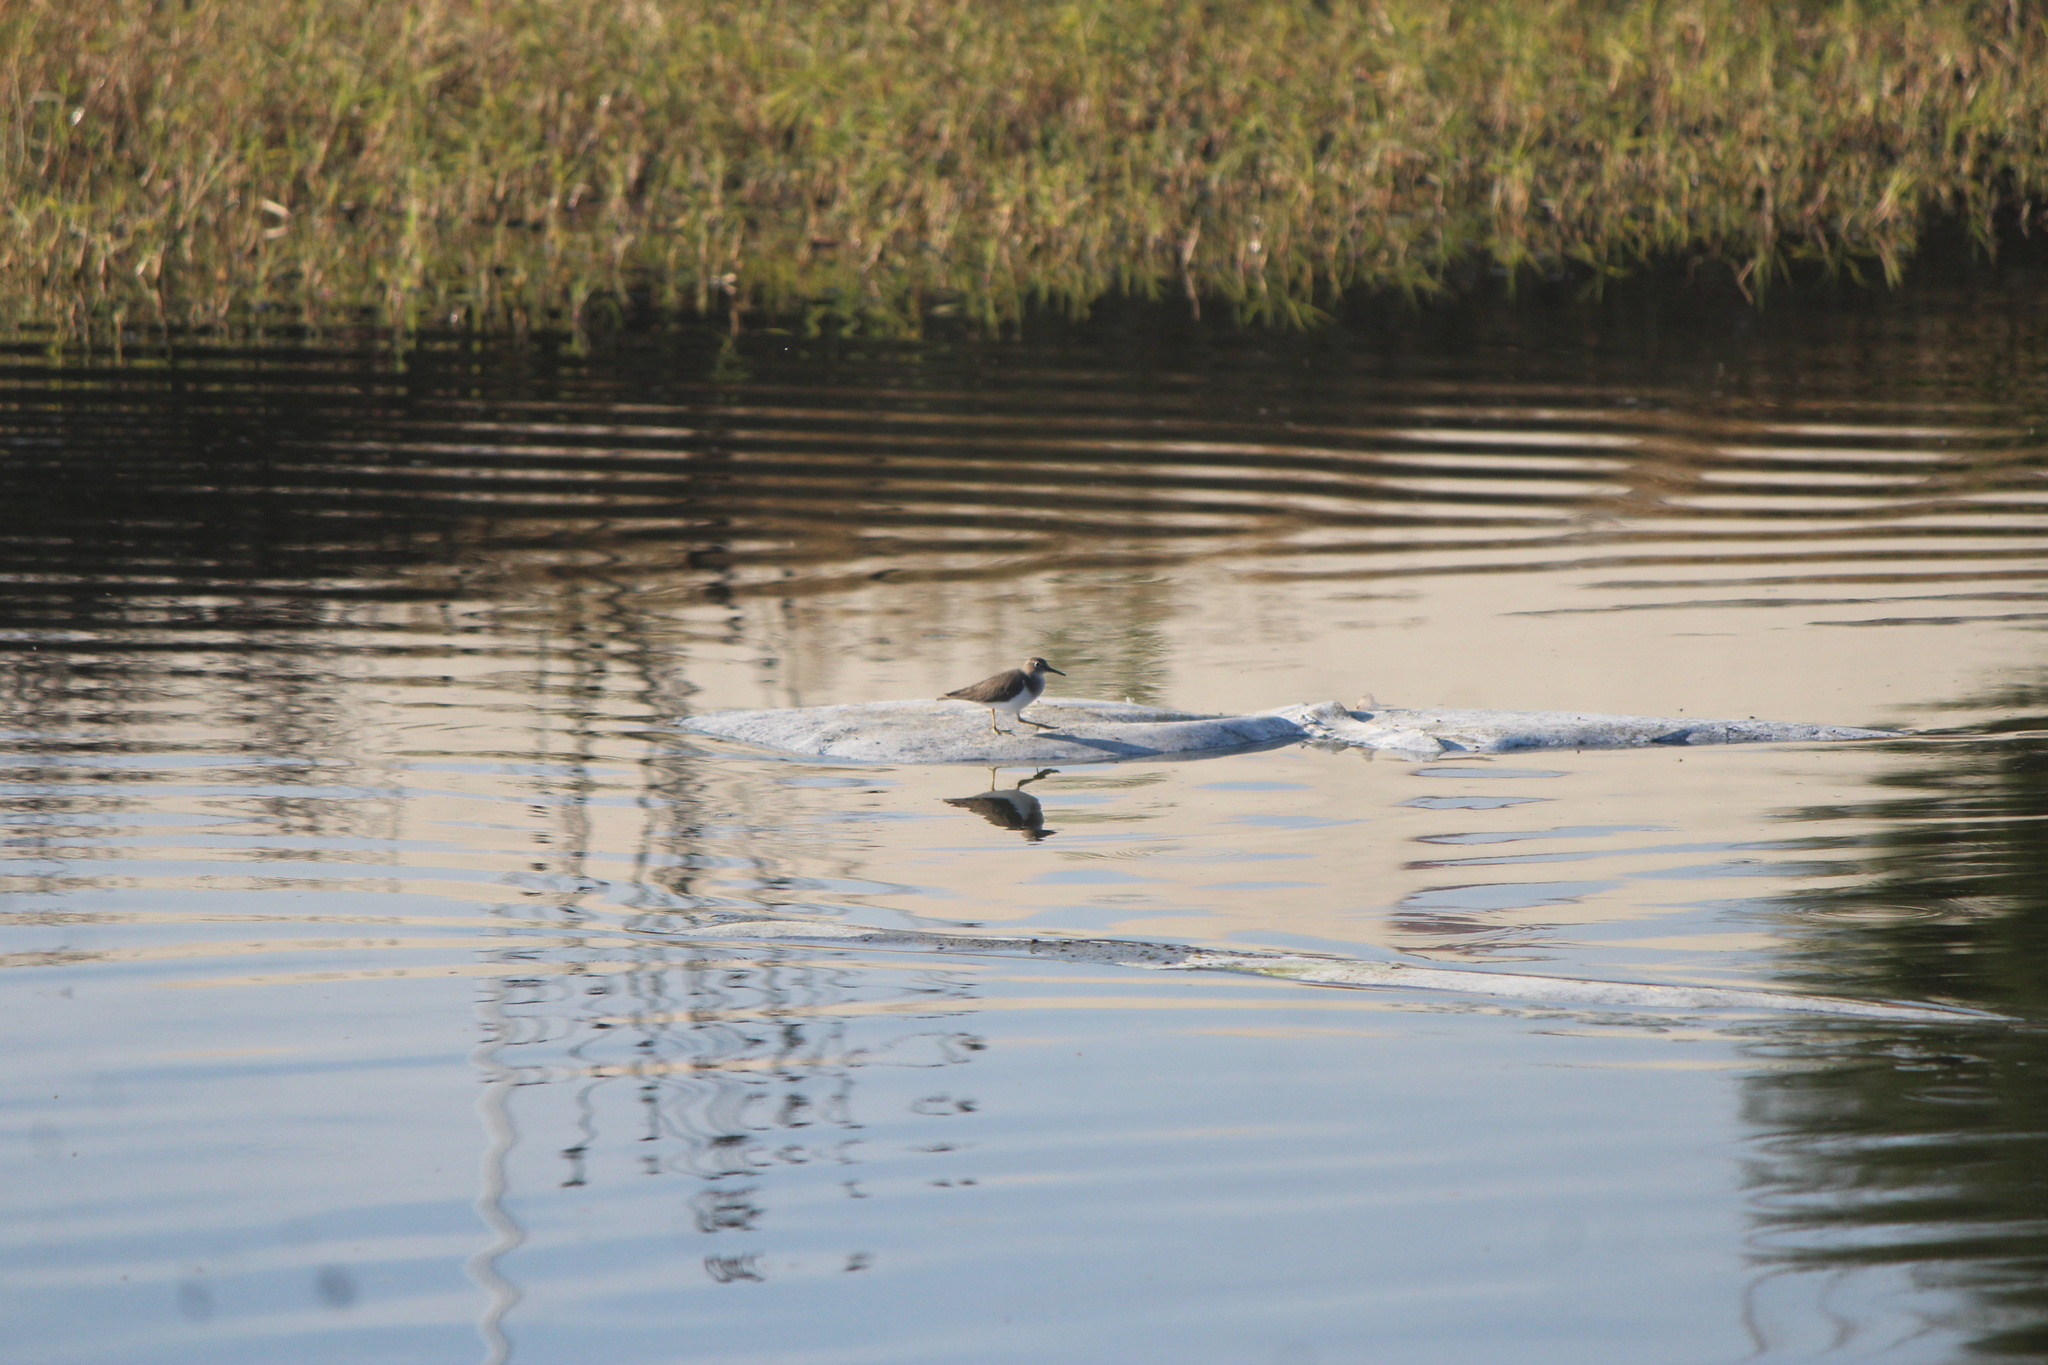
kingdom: Animalia
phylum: Chordata
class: Aves
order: Charadriiformes
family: Scolopacidae
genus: Actitis
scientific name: Actitis macularius
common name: Spotted sandpiper
